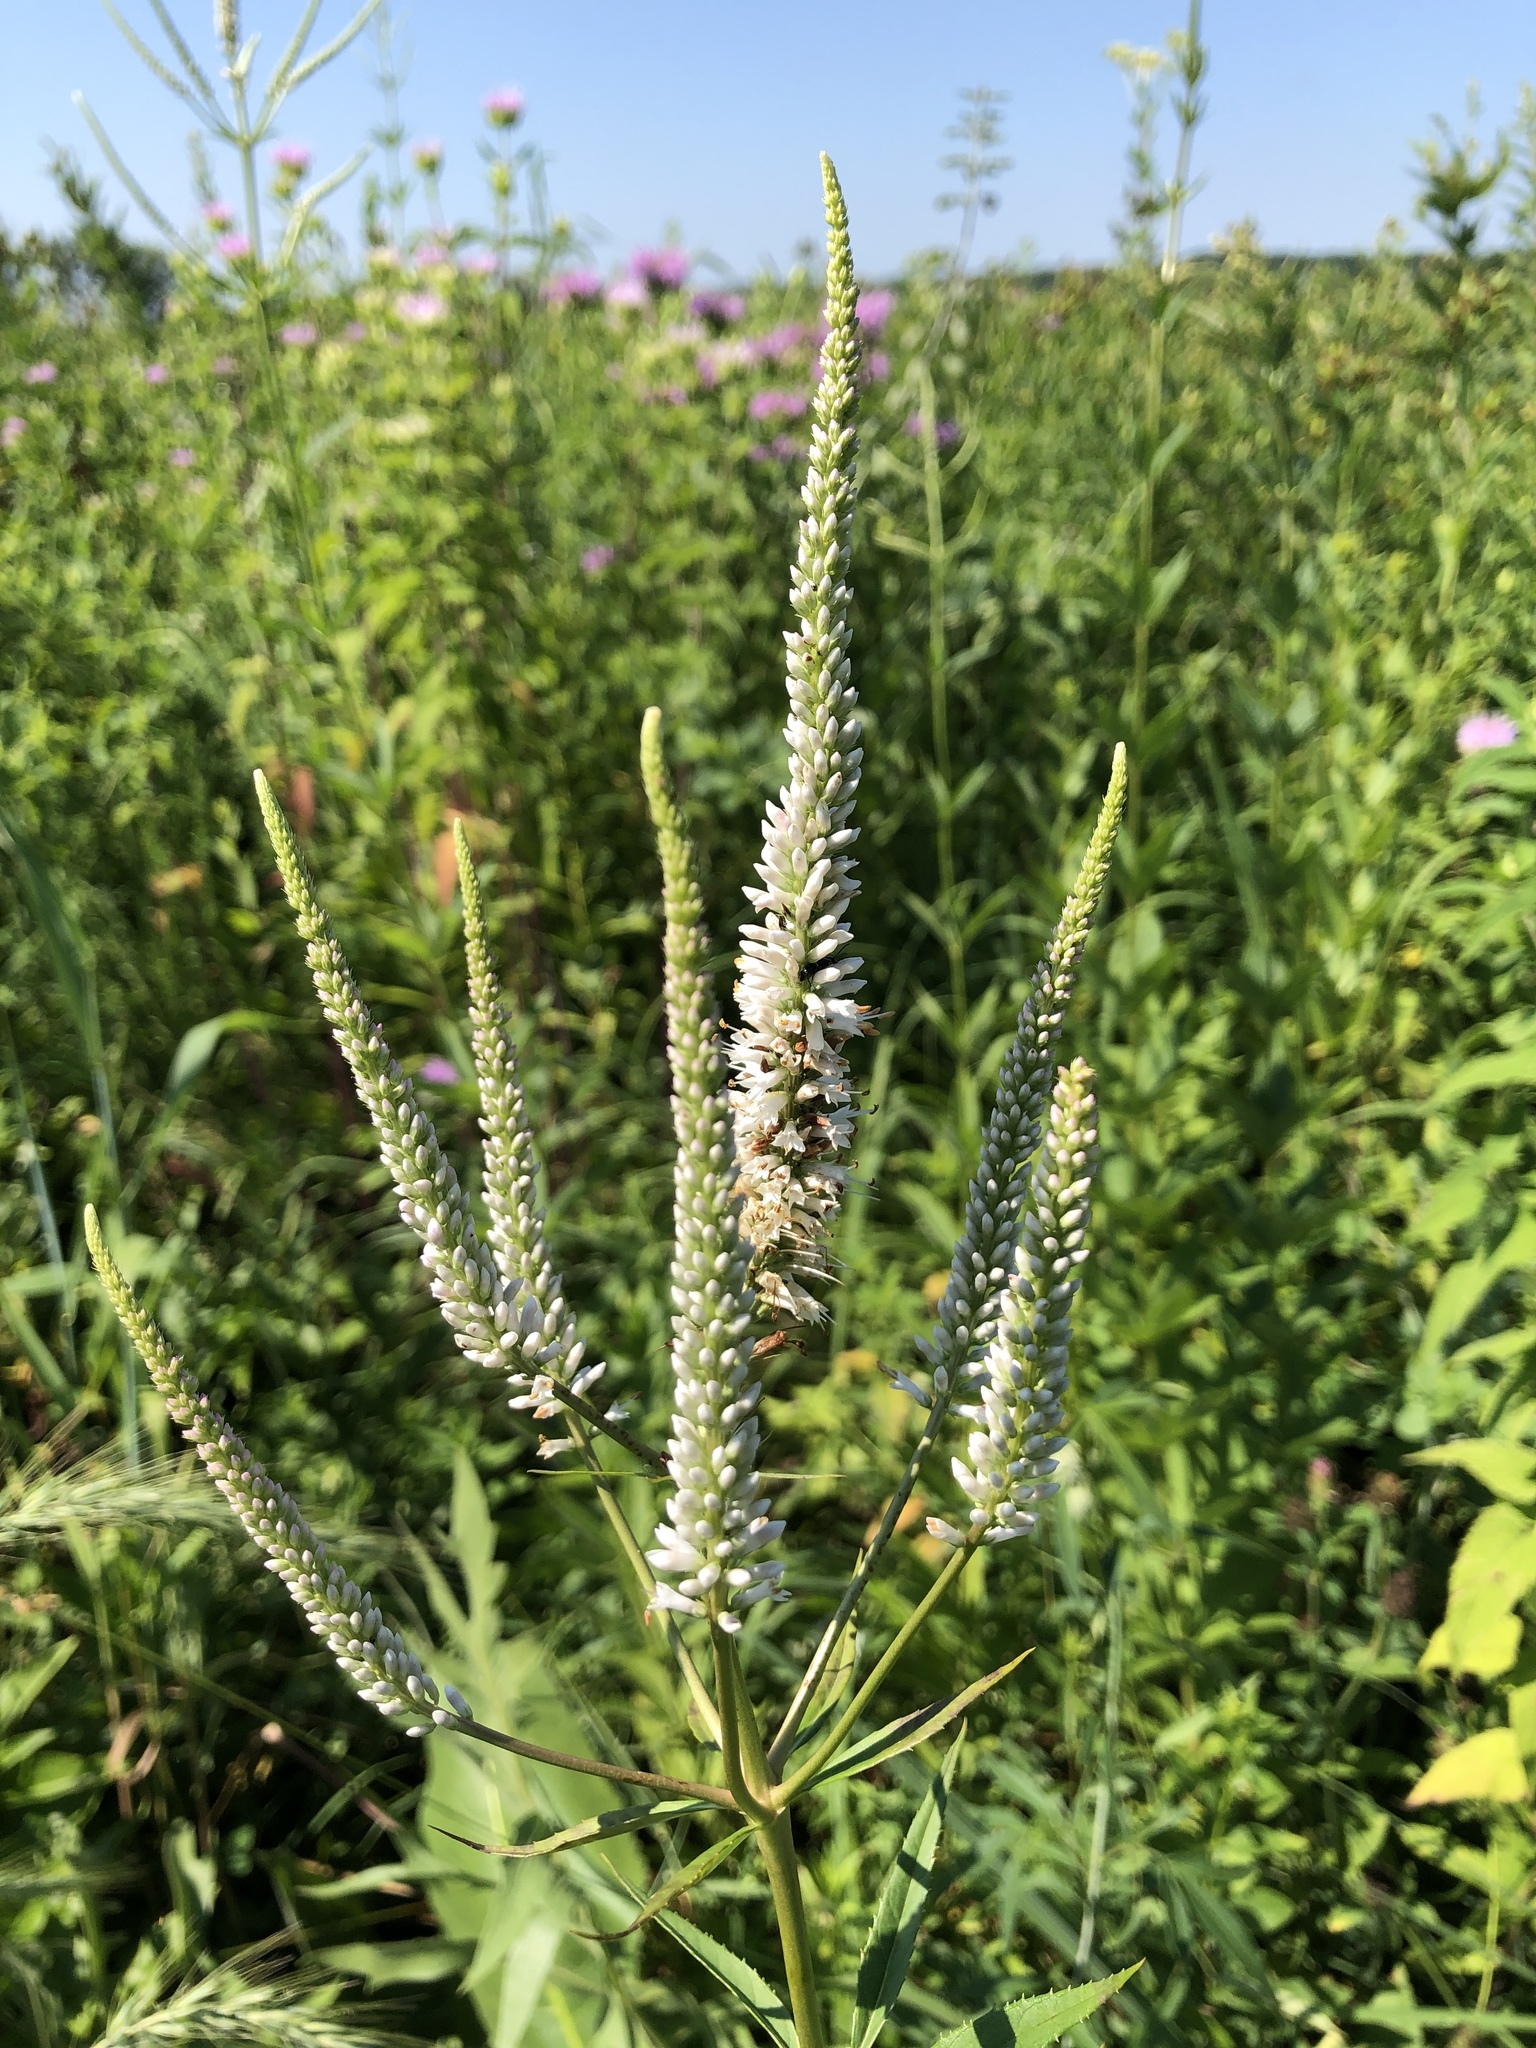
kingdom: Plantae
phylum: Tracheophyta
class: Magnoliopsida
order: Lamiales
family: Plantaginaceae
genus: Veronicastrum
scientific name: Veronicastrum virginicum
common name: Blackroot
